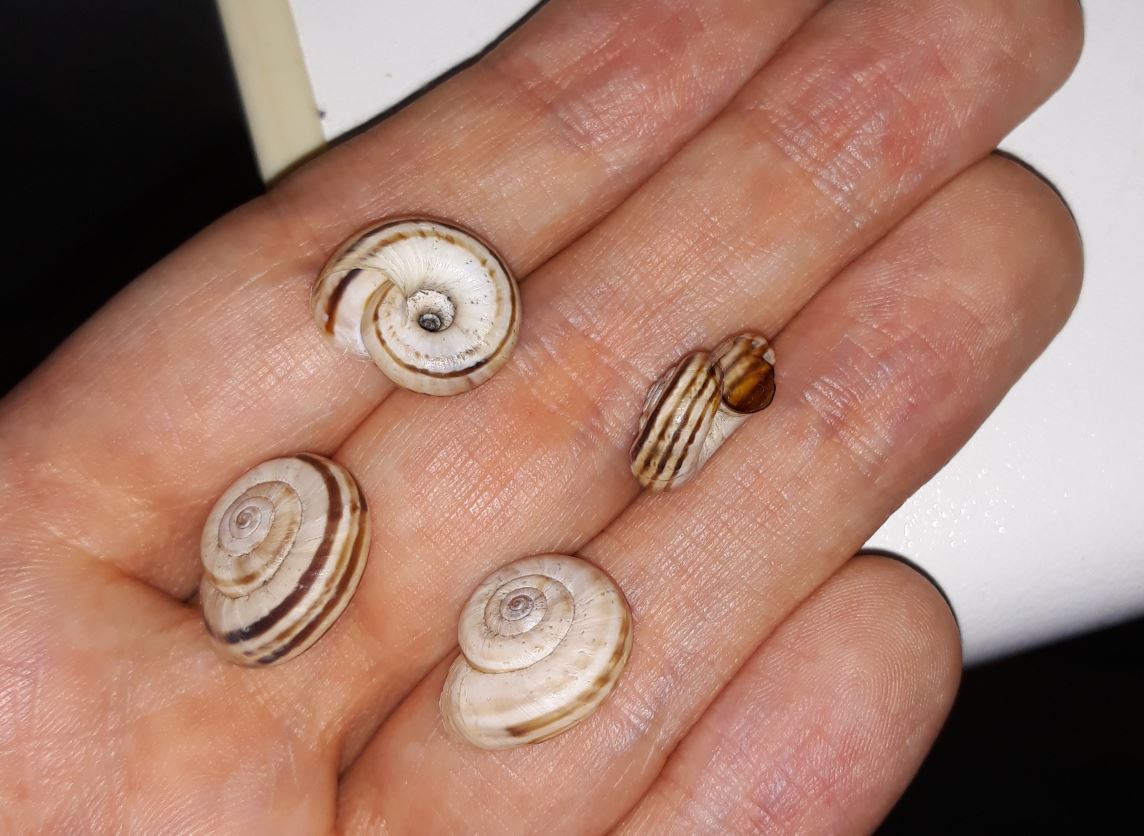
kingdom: Animalia
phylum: Mollusca
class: Gastropoda
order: Stylommatophora
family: Geomitridae
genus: Xerolenta
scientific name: Xerolenta obvia
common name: White heath snail
